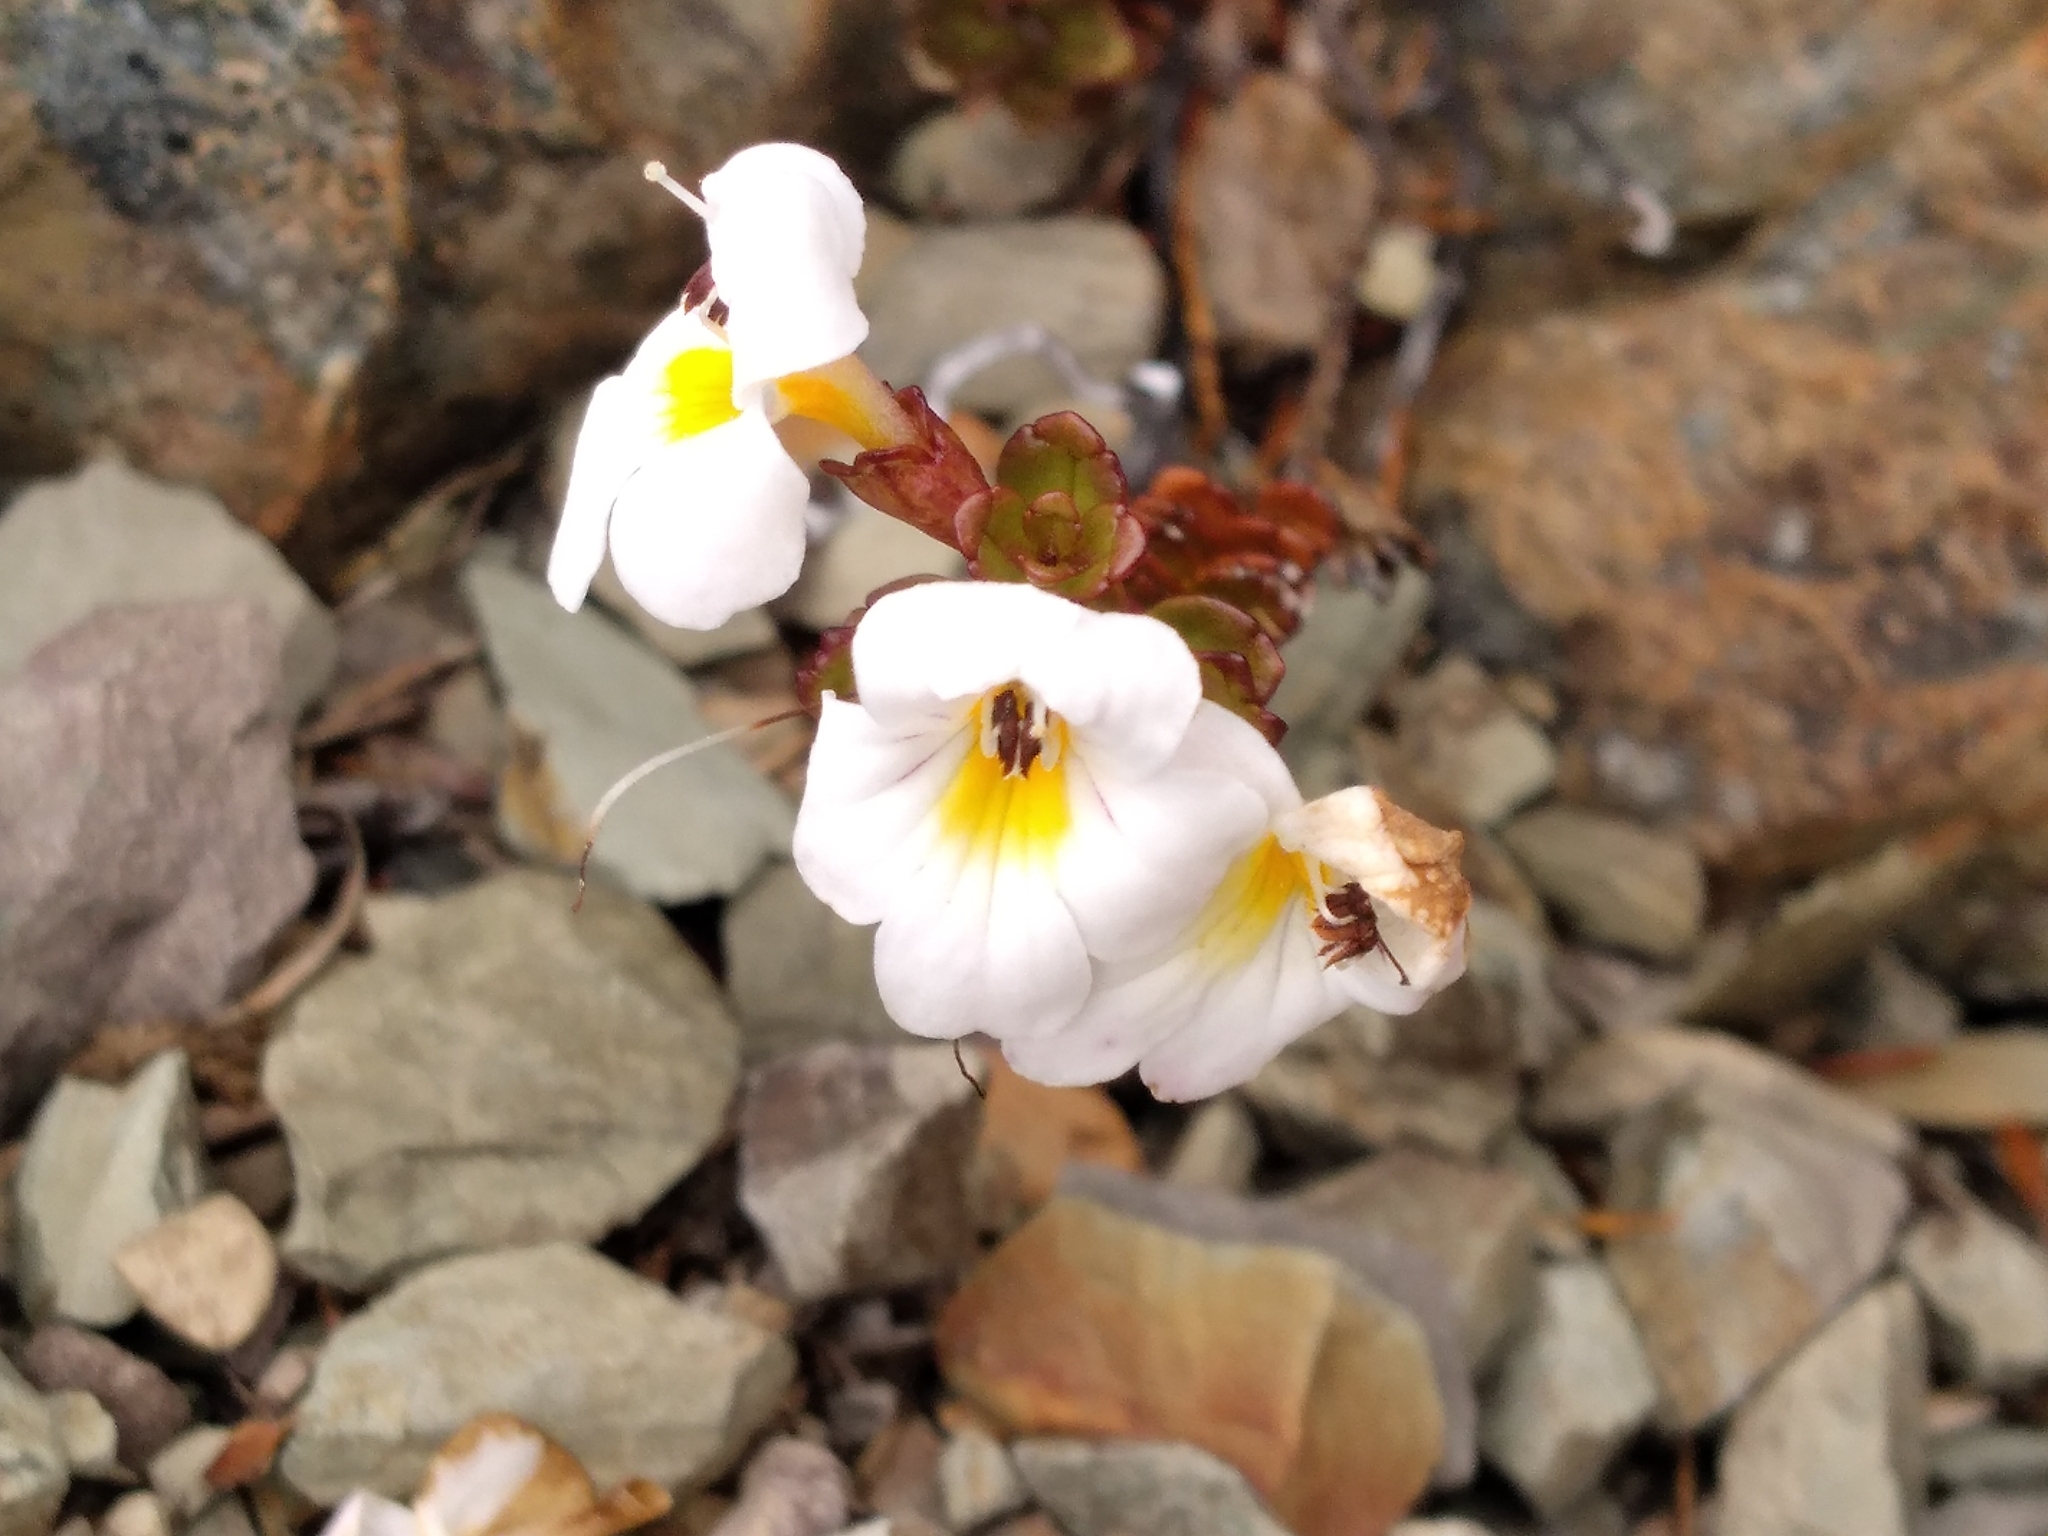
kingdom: Plantae
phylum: Tracheophyta
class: Magnoliopsida
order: Lamiales
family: Orobanchaceae
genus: Euphrasia
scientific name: Euphrasia monroi
